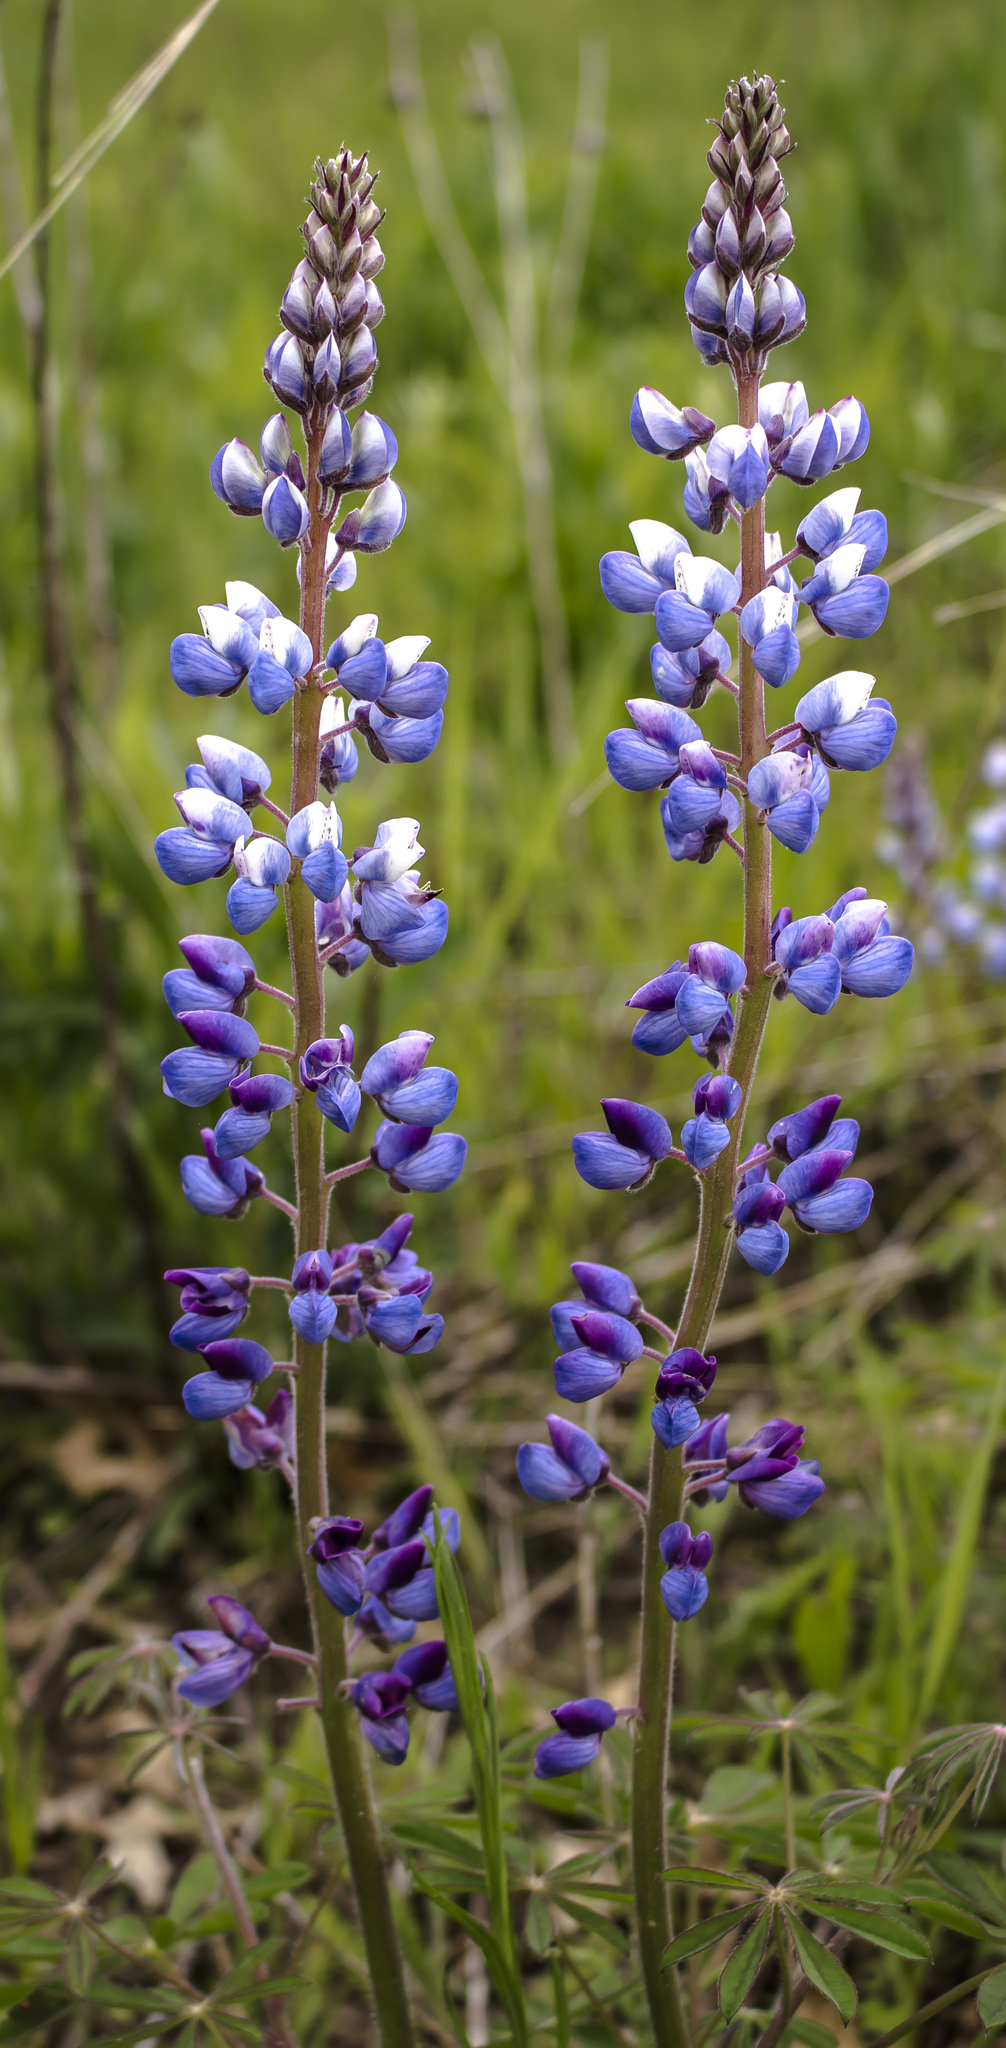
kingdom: Plantae
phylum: Tracheophyta
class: Magnoliopsida
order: Fabales
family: Fabaceae
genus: Lupinus
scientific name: Lupinus perennis
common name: Sundial lupine
